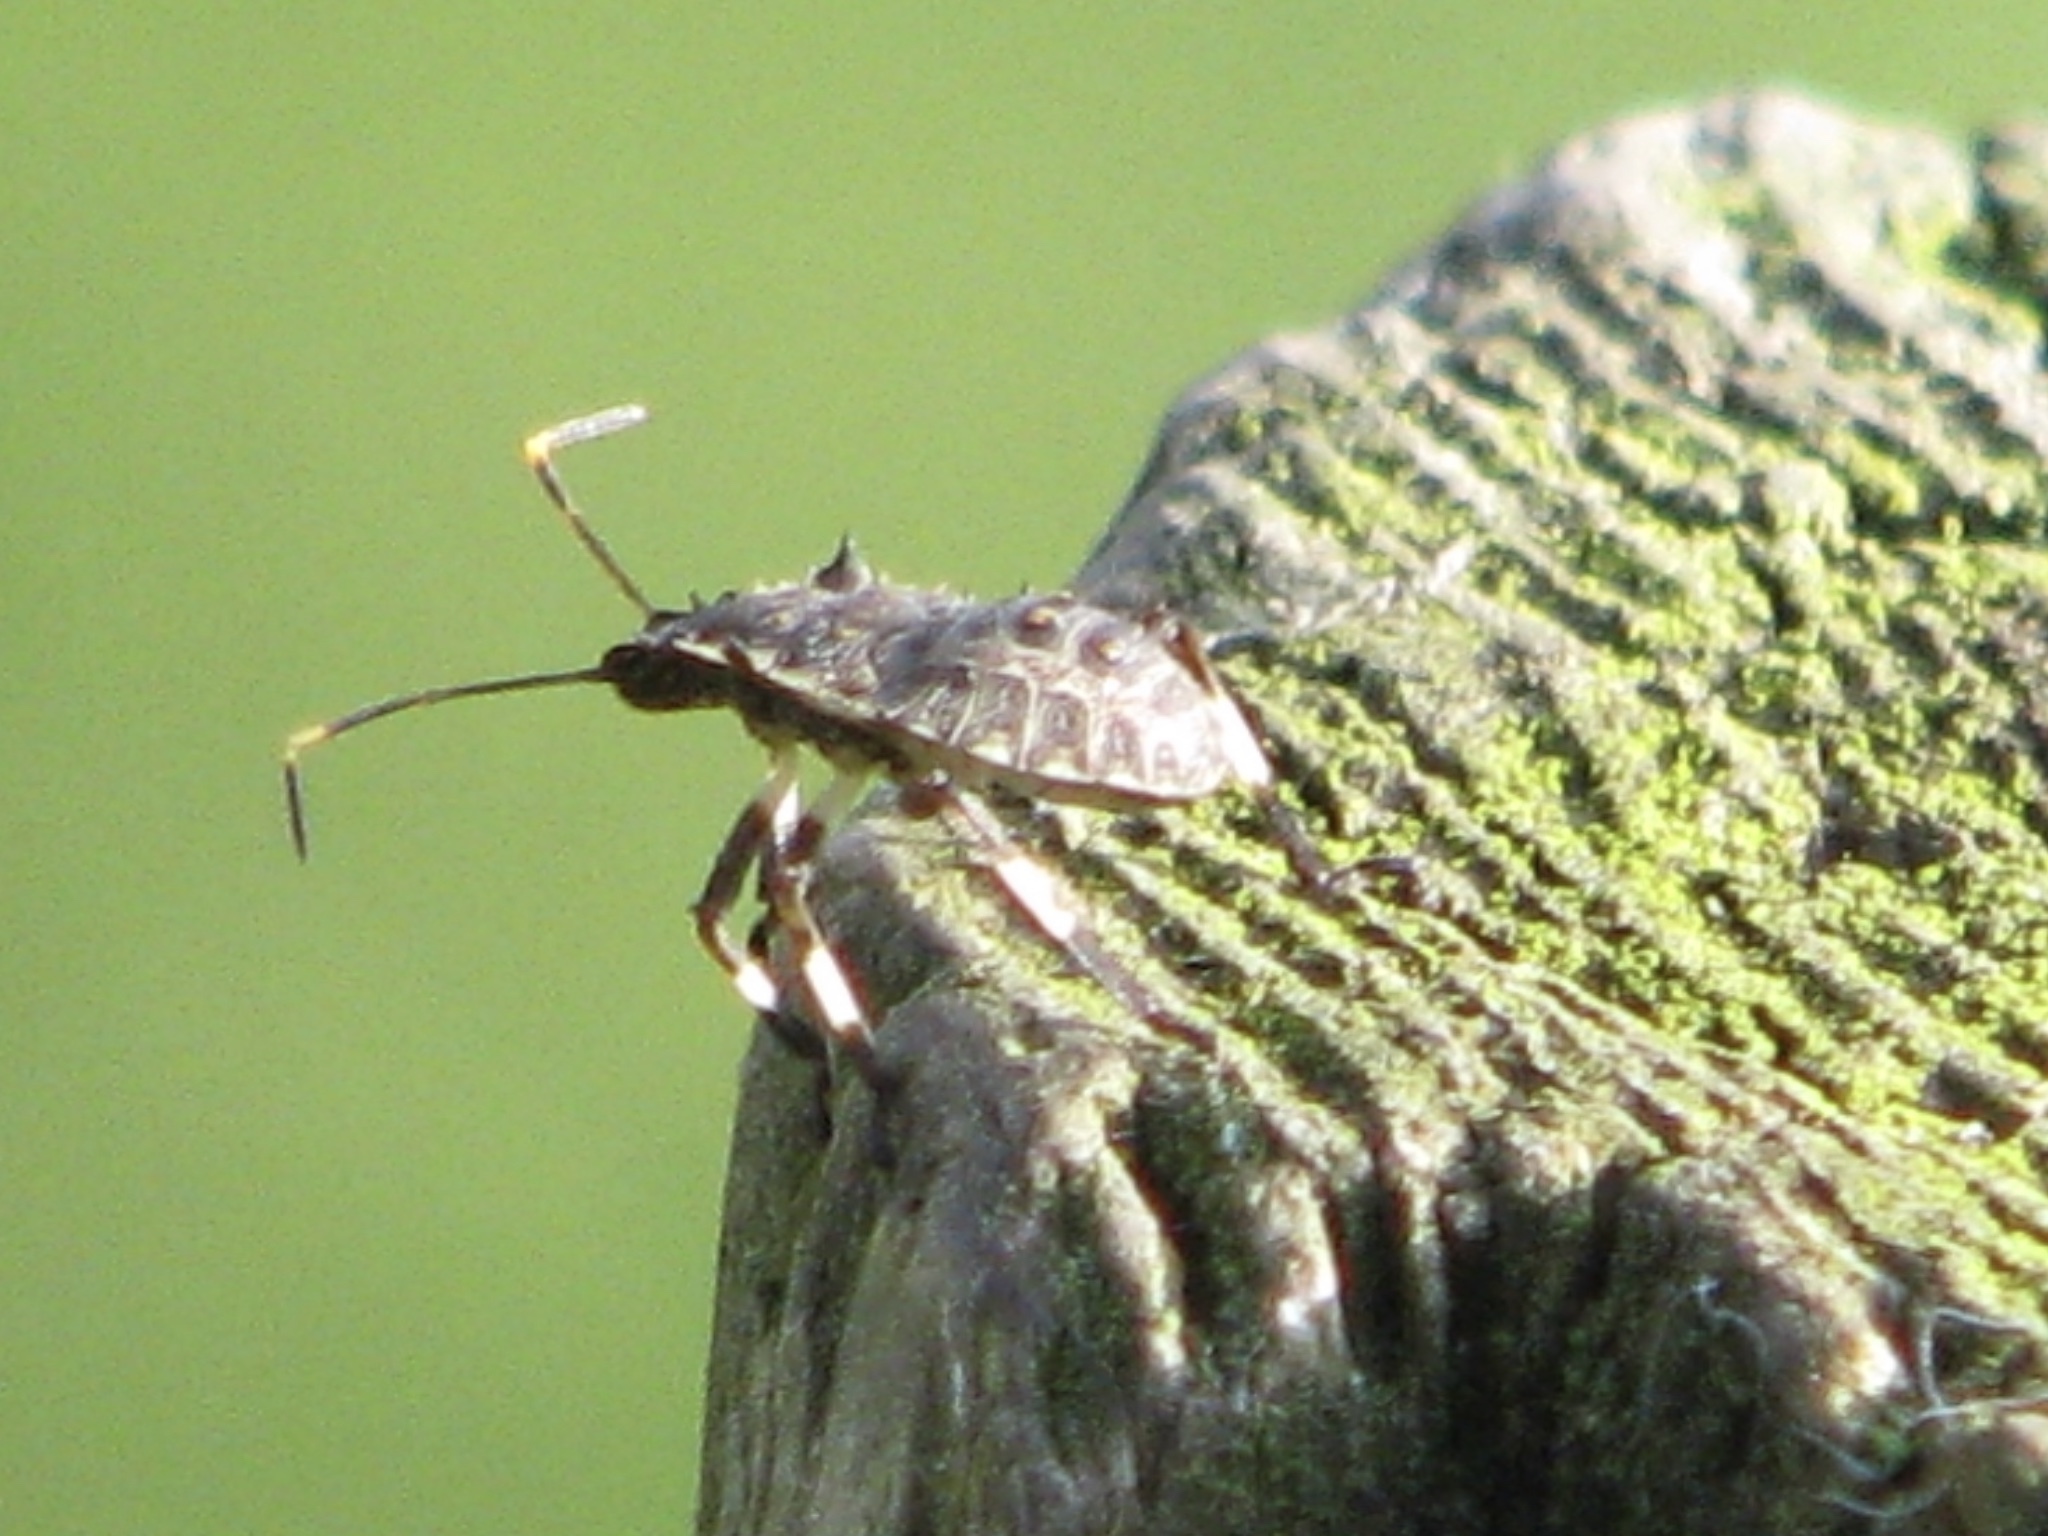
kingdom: Animalia
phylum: Arthropoda
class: Insecta
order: Hemiptera
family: Pentatomidae
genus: Halyomorpha
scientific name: Halyomorpha halys
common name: Brown marmorated stink bug
